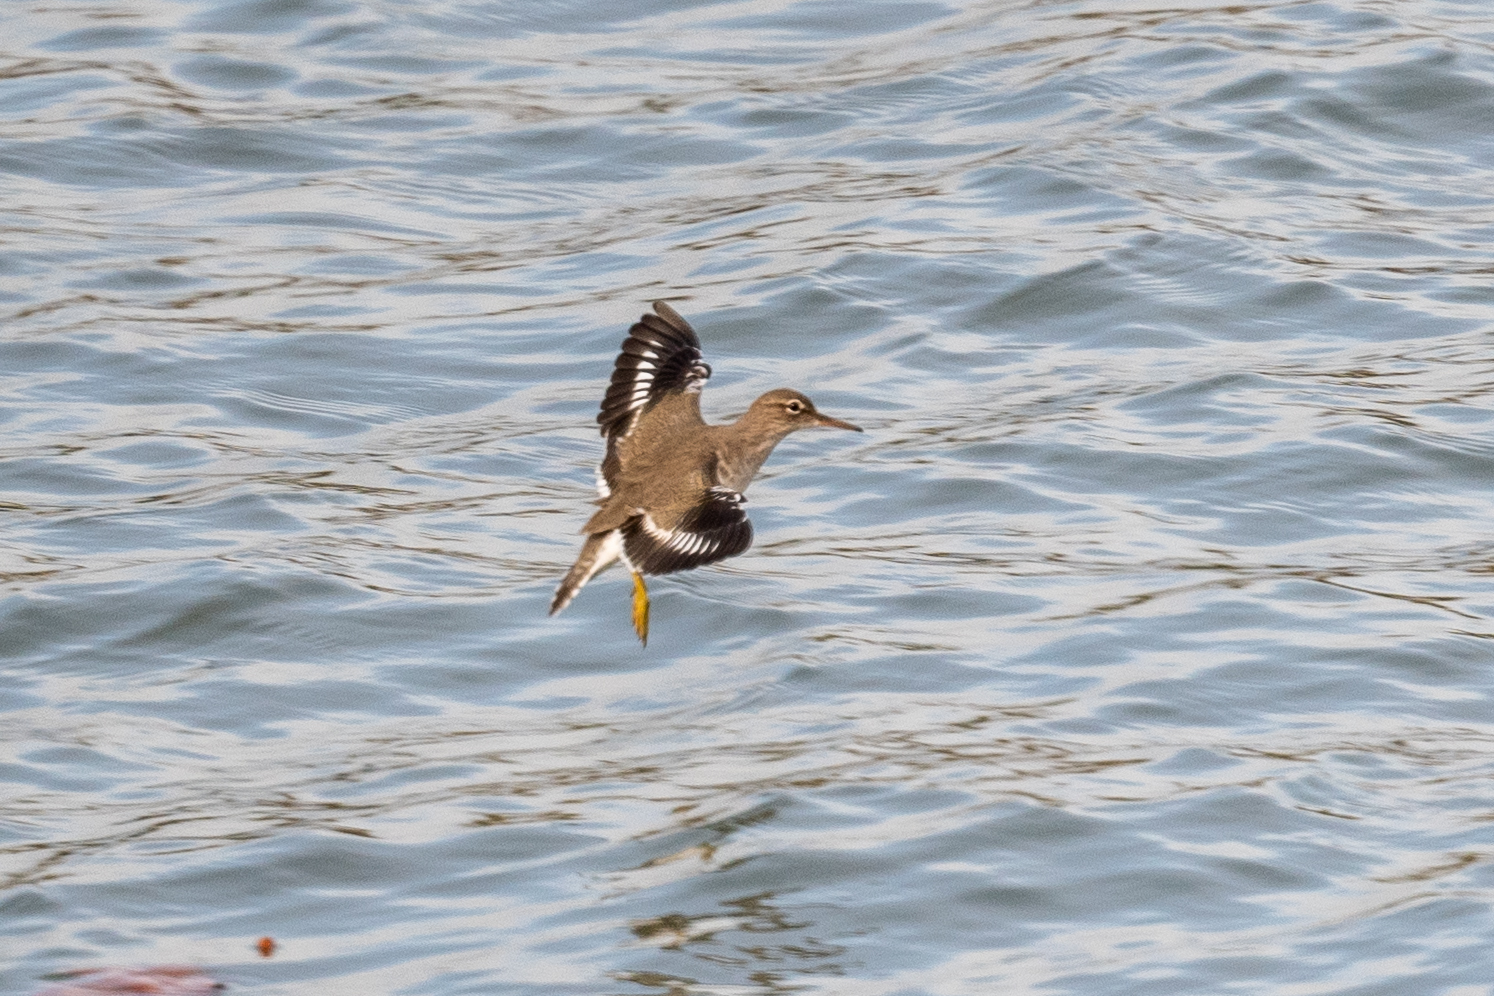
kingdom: Animalia
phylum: Chordata
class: Aves
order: Charadriiformes
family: Scolopacidae
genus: Actitis
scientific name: Actitis macularius
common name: Spotted sandpiper
